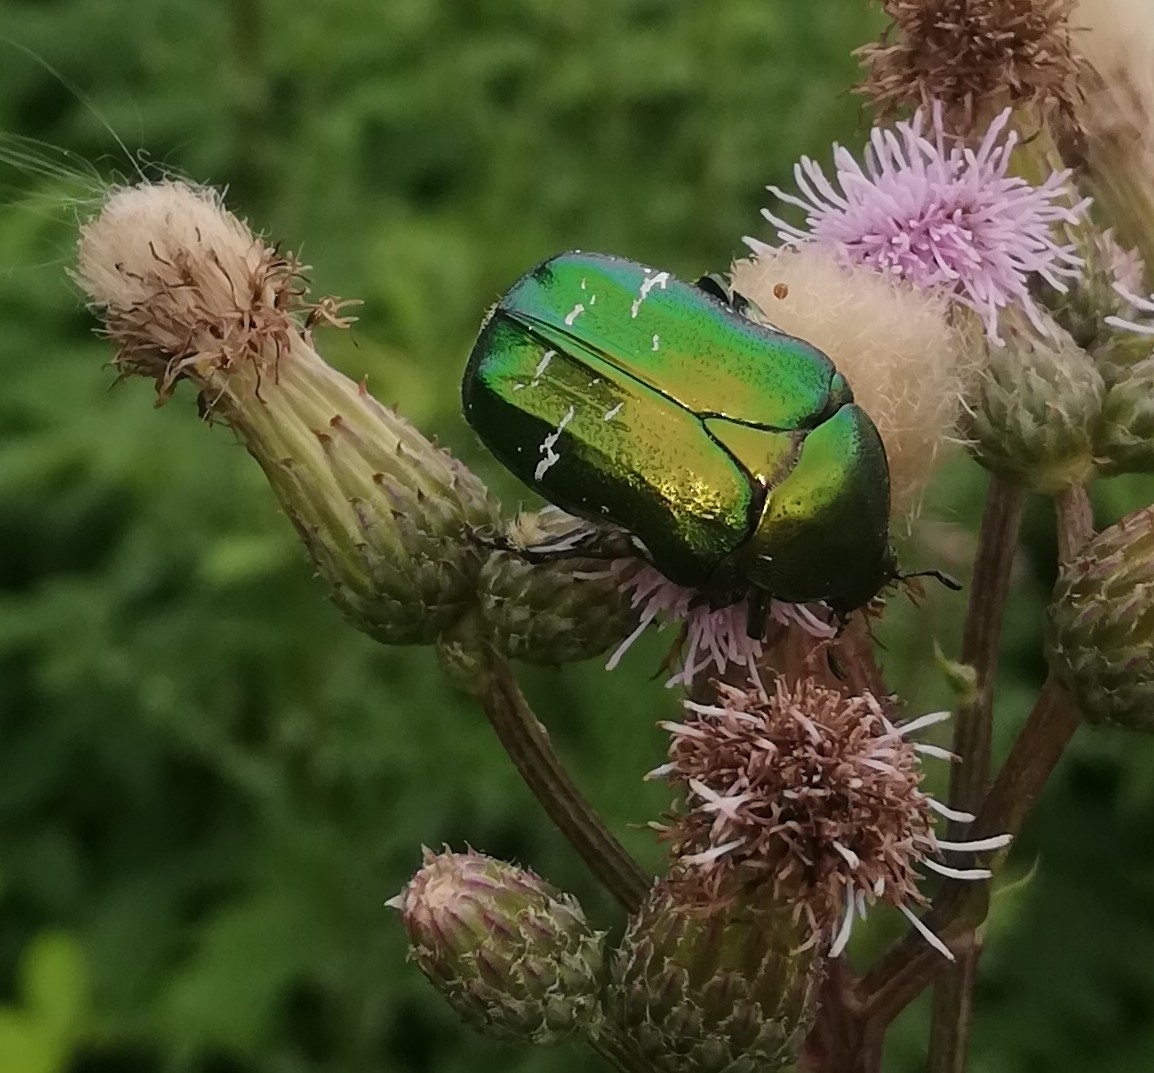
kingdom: Animalia
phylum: Arthropoda
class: Insecta
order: Coleoptera
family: Scarabaeidae
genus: Cetonia
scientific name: Cetonia aurata
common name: Rose chafer
